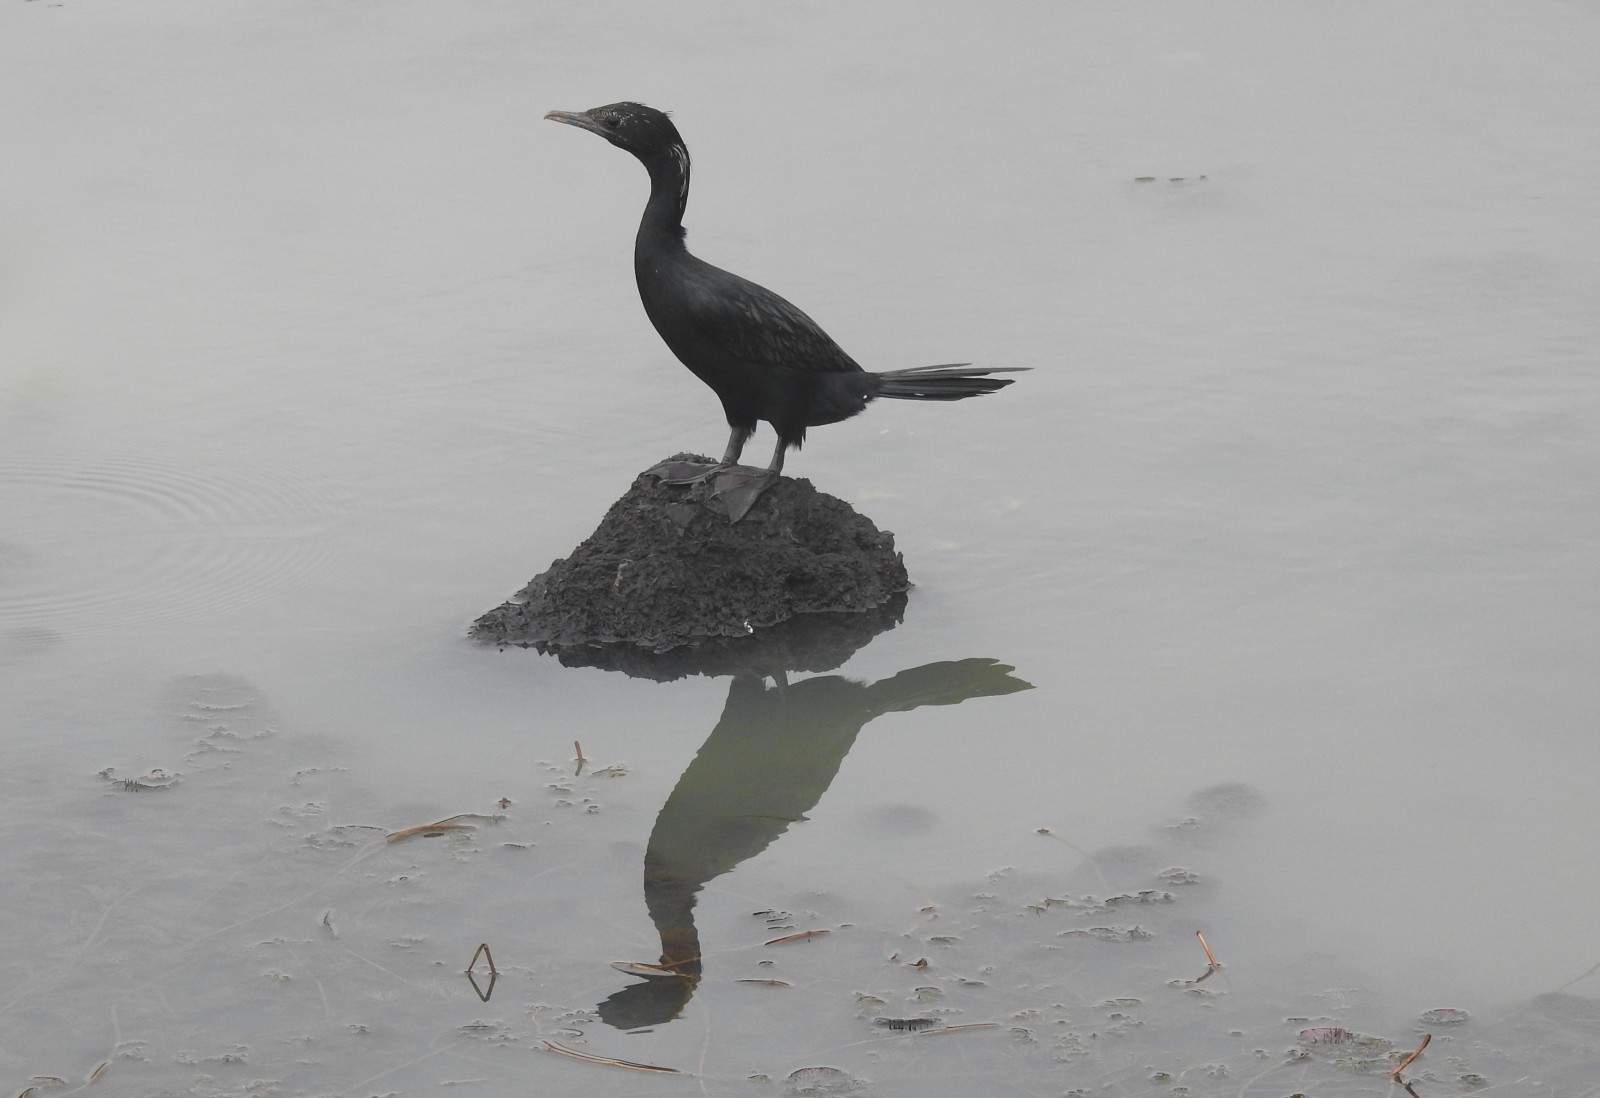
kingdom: Animalia
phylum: Chordata
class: Aves
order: Suliformes
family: Phalacrocoracidae
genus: Microcarbo
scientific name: Microcarbo niger
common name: Little cormorant
